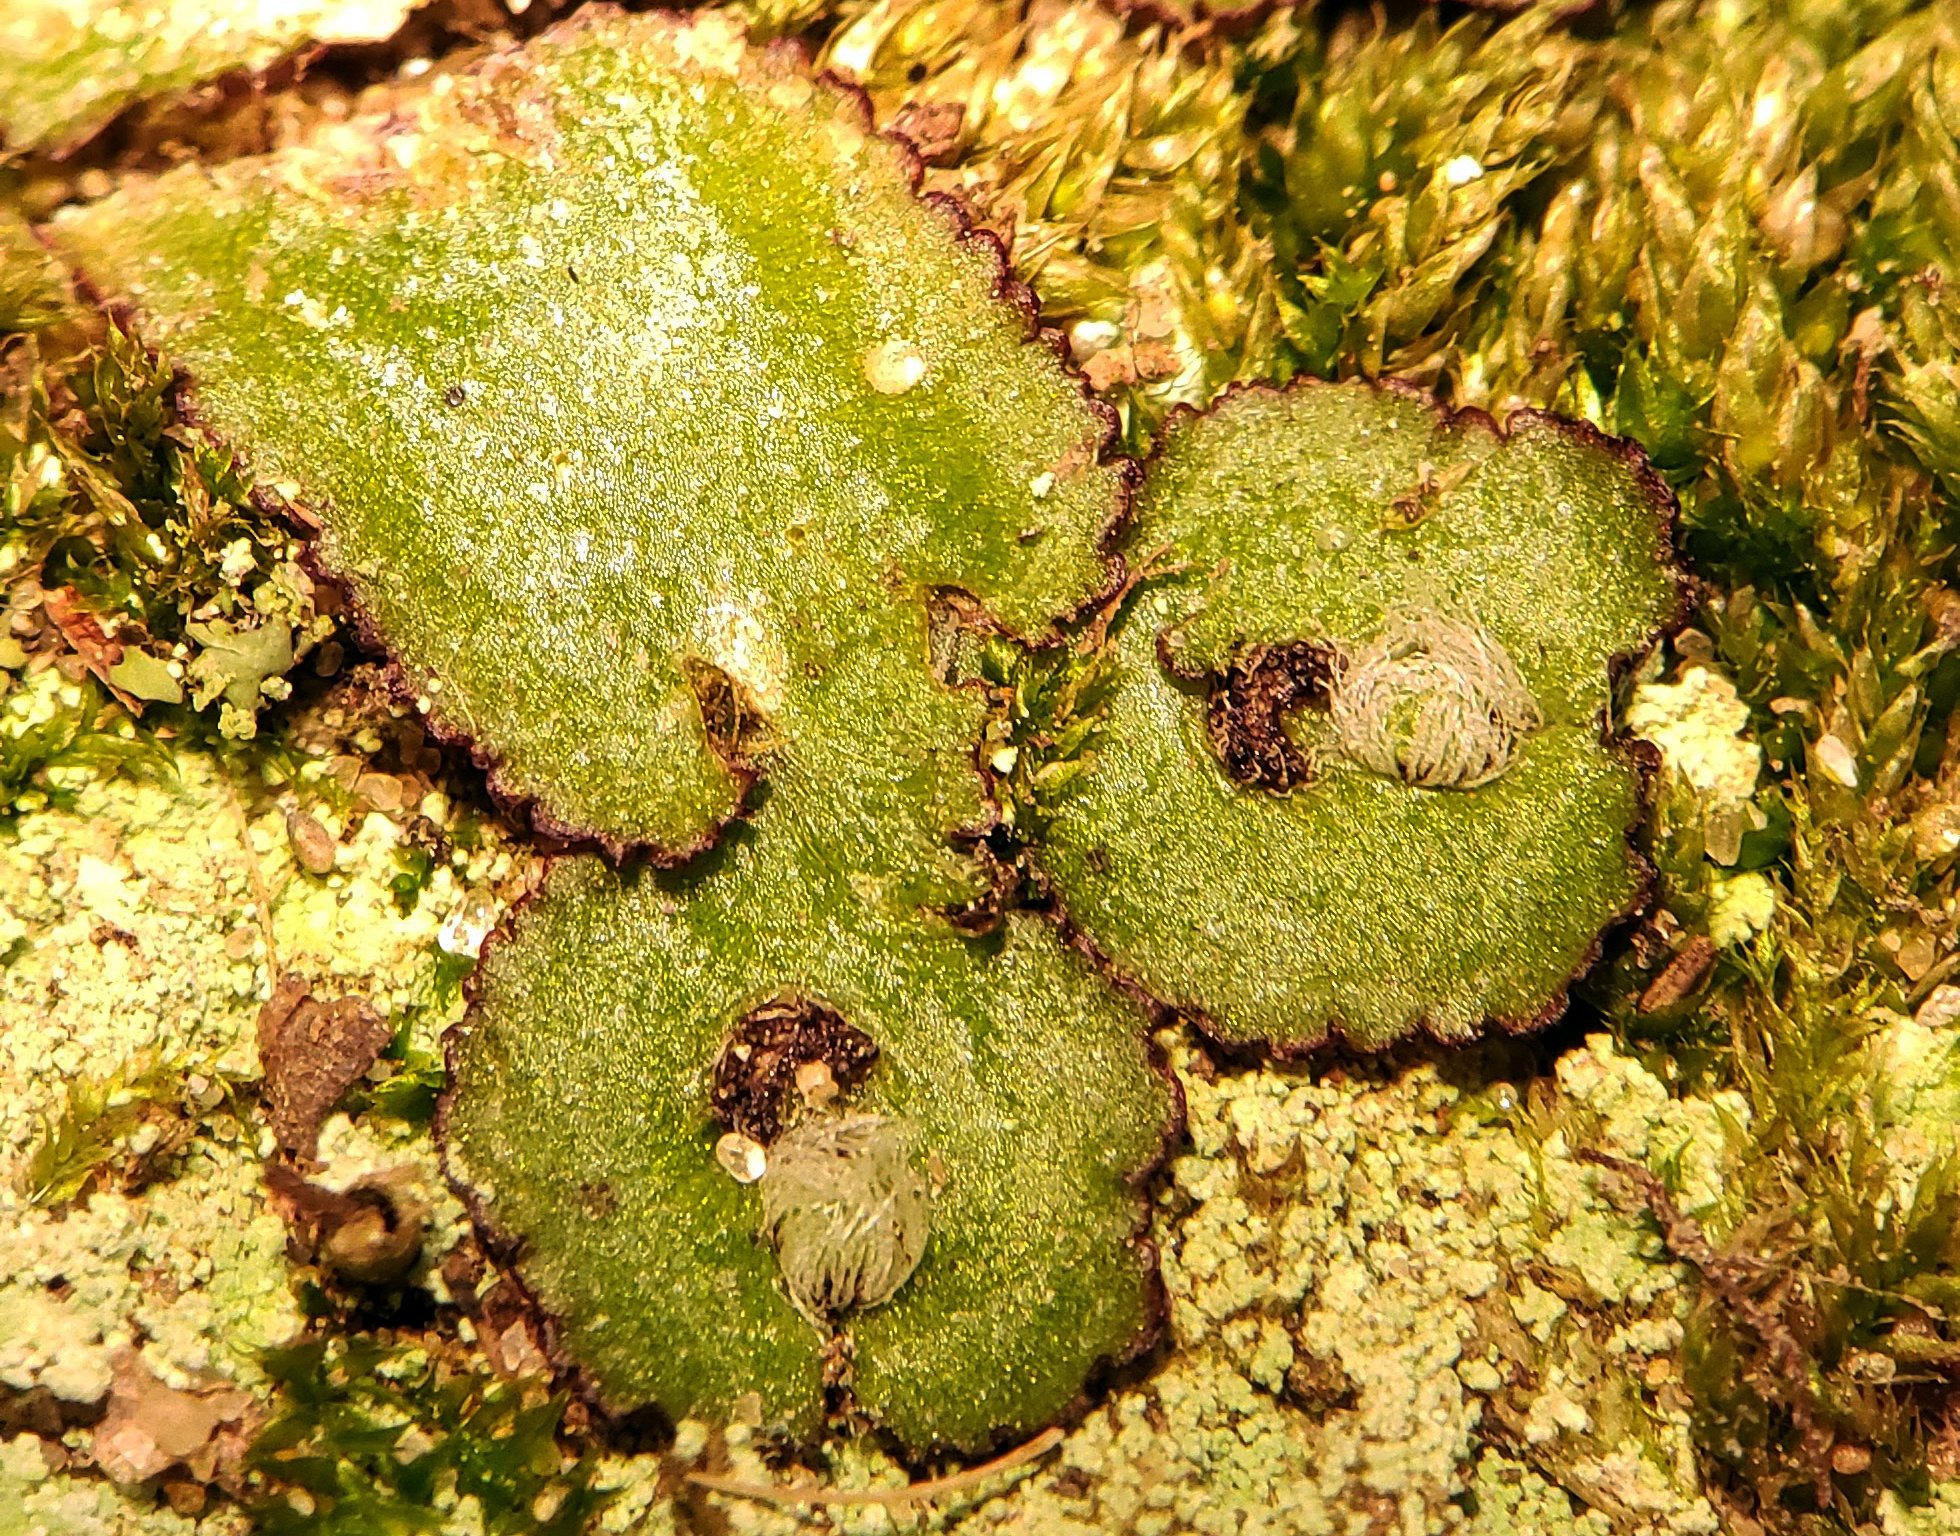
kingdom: Plantae
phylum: Marchantiophyta
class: Marchantiopsida
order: Marchantiales
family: Aytoniaceae
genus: Reboulia
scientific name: Reboulia hemisphaerica
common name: Purple-margined liverwort
